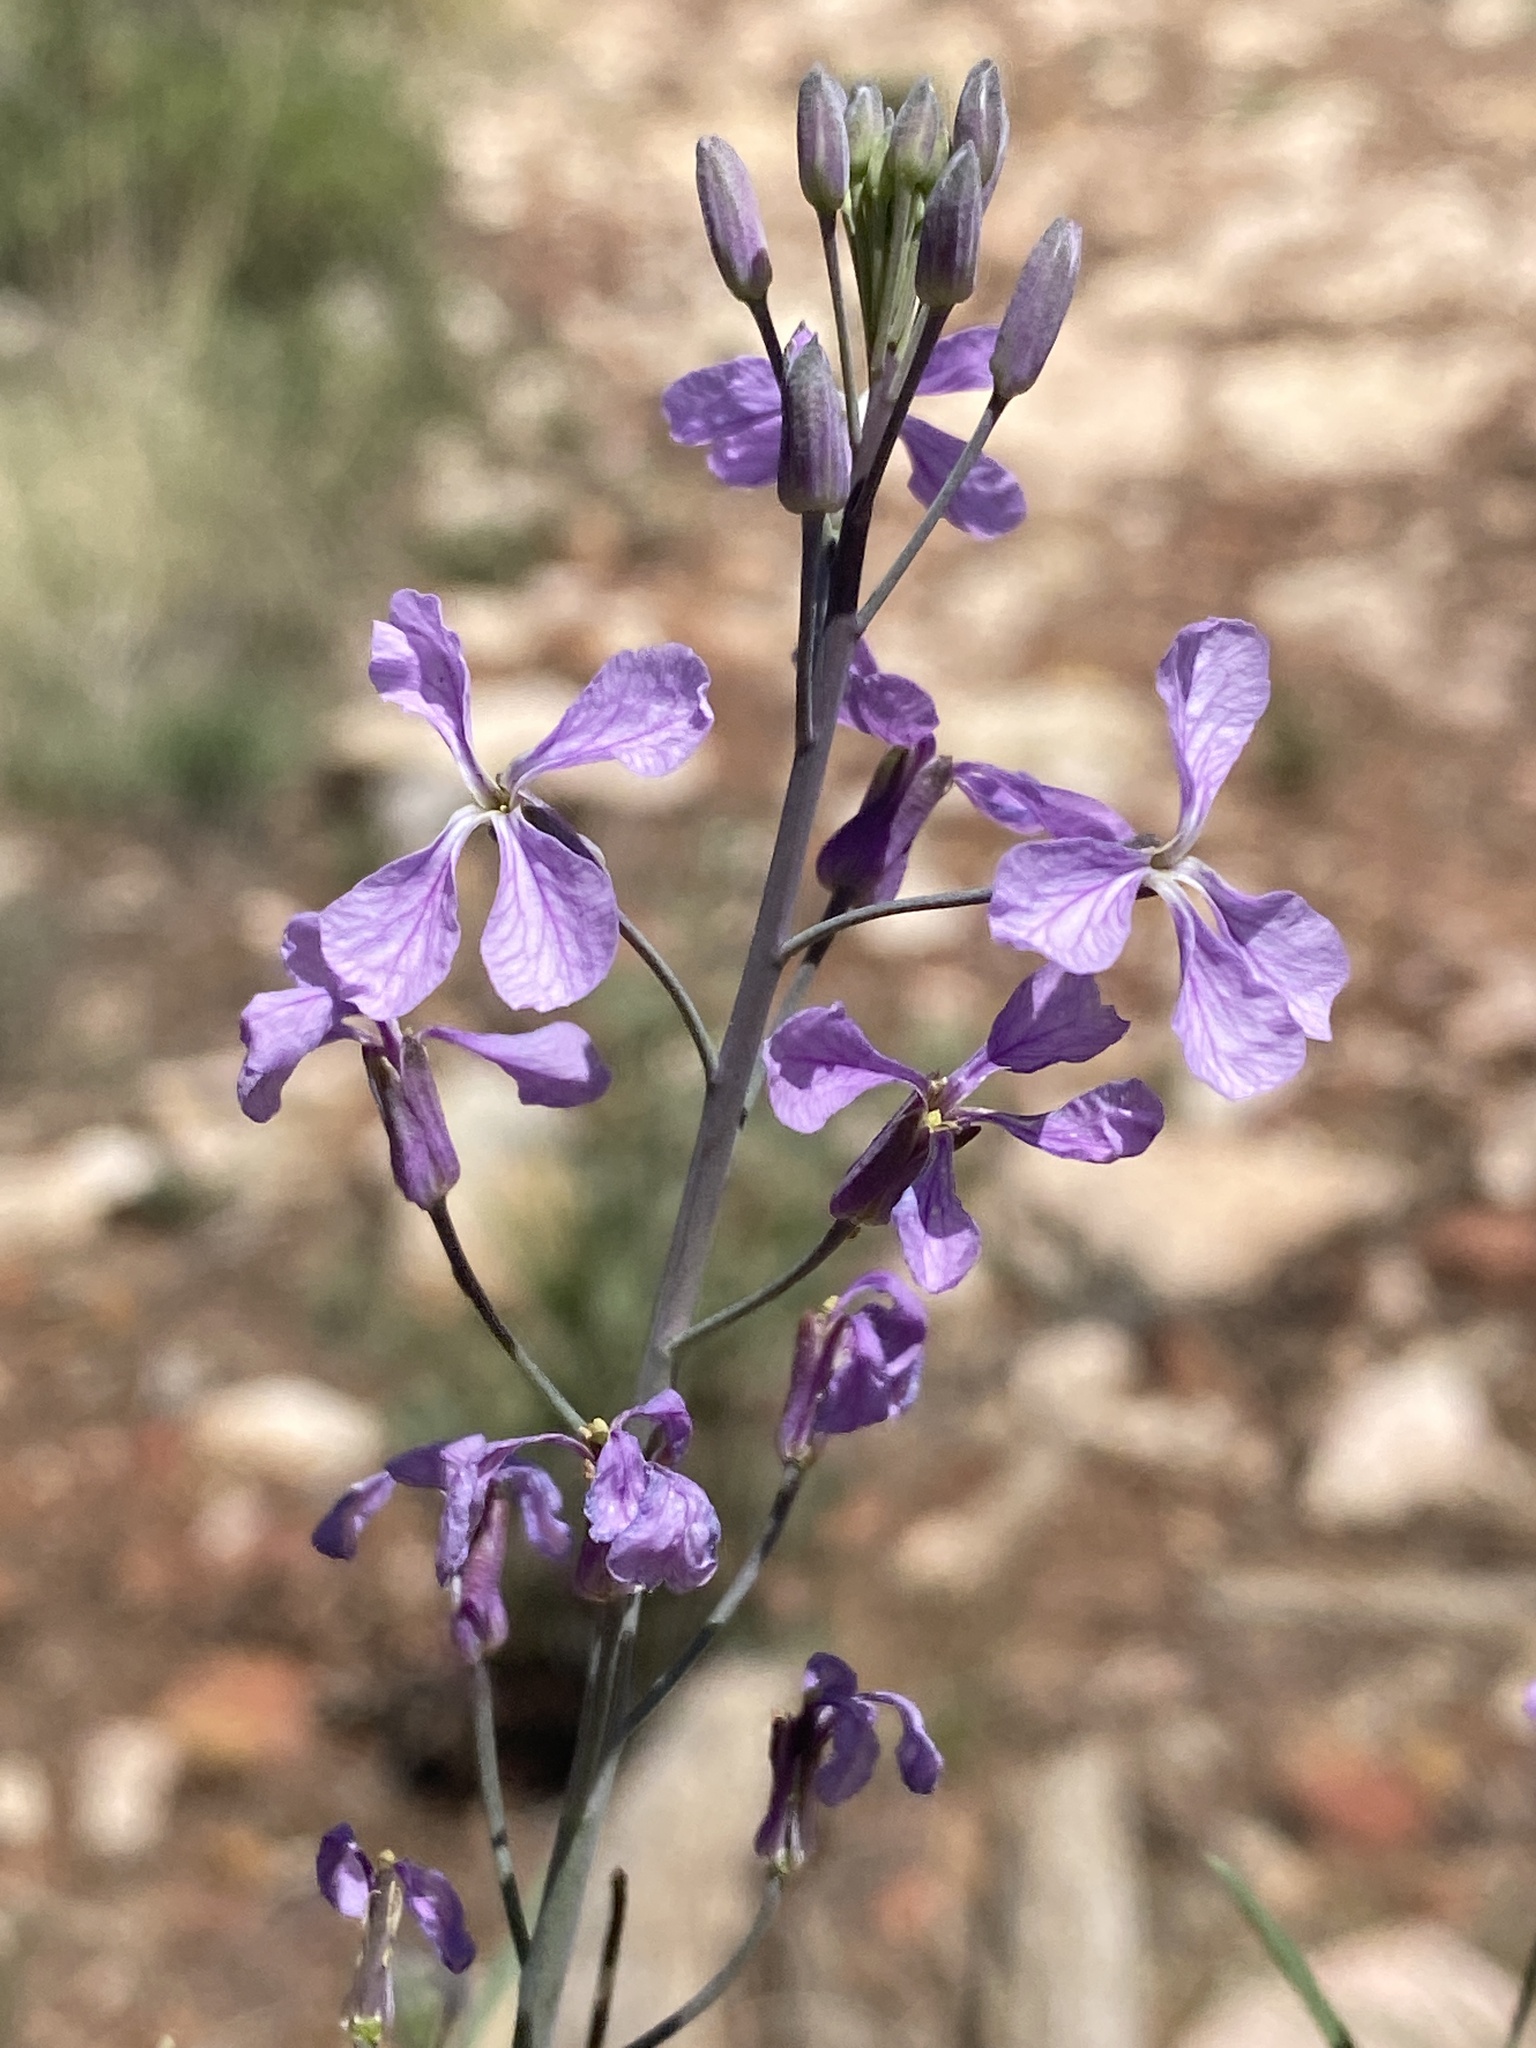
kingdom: Plantae
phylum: Tracheophyta
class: Magnoliopsida
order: Brassicales
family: Brassicaceae
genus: Hesperidanthus
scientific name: Hesperidanthus linearifolius
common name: Slim-leaf plains mustard
